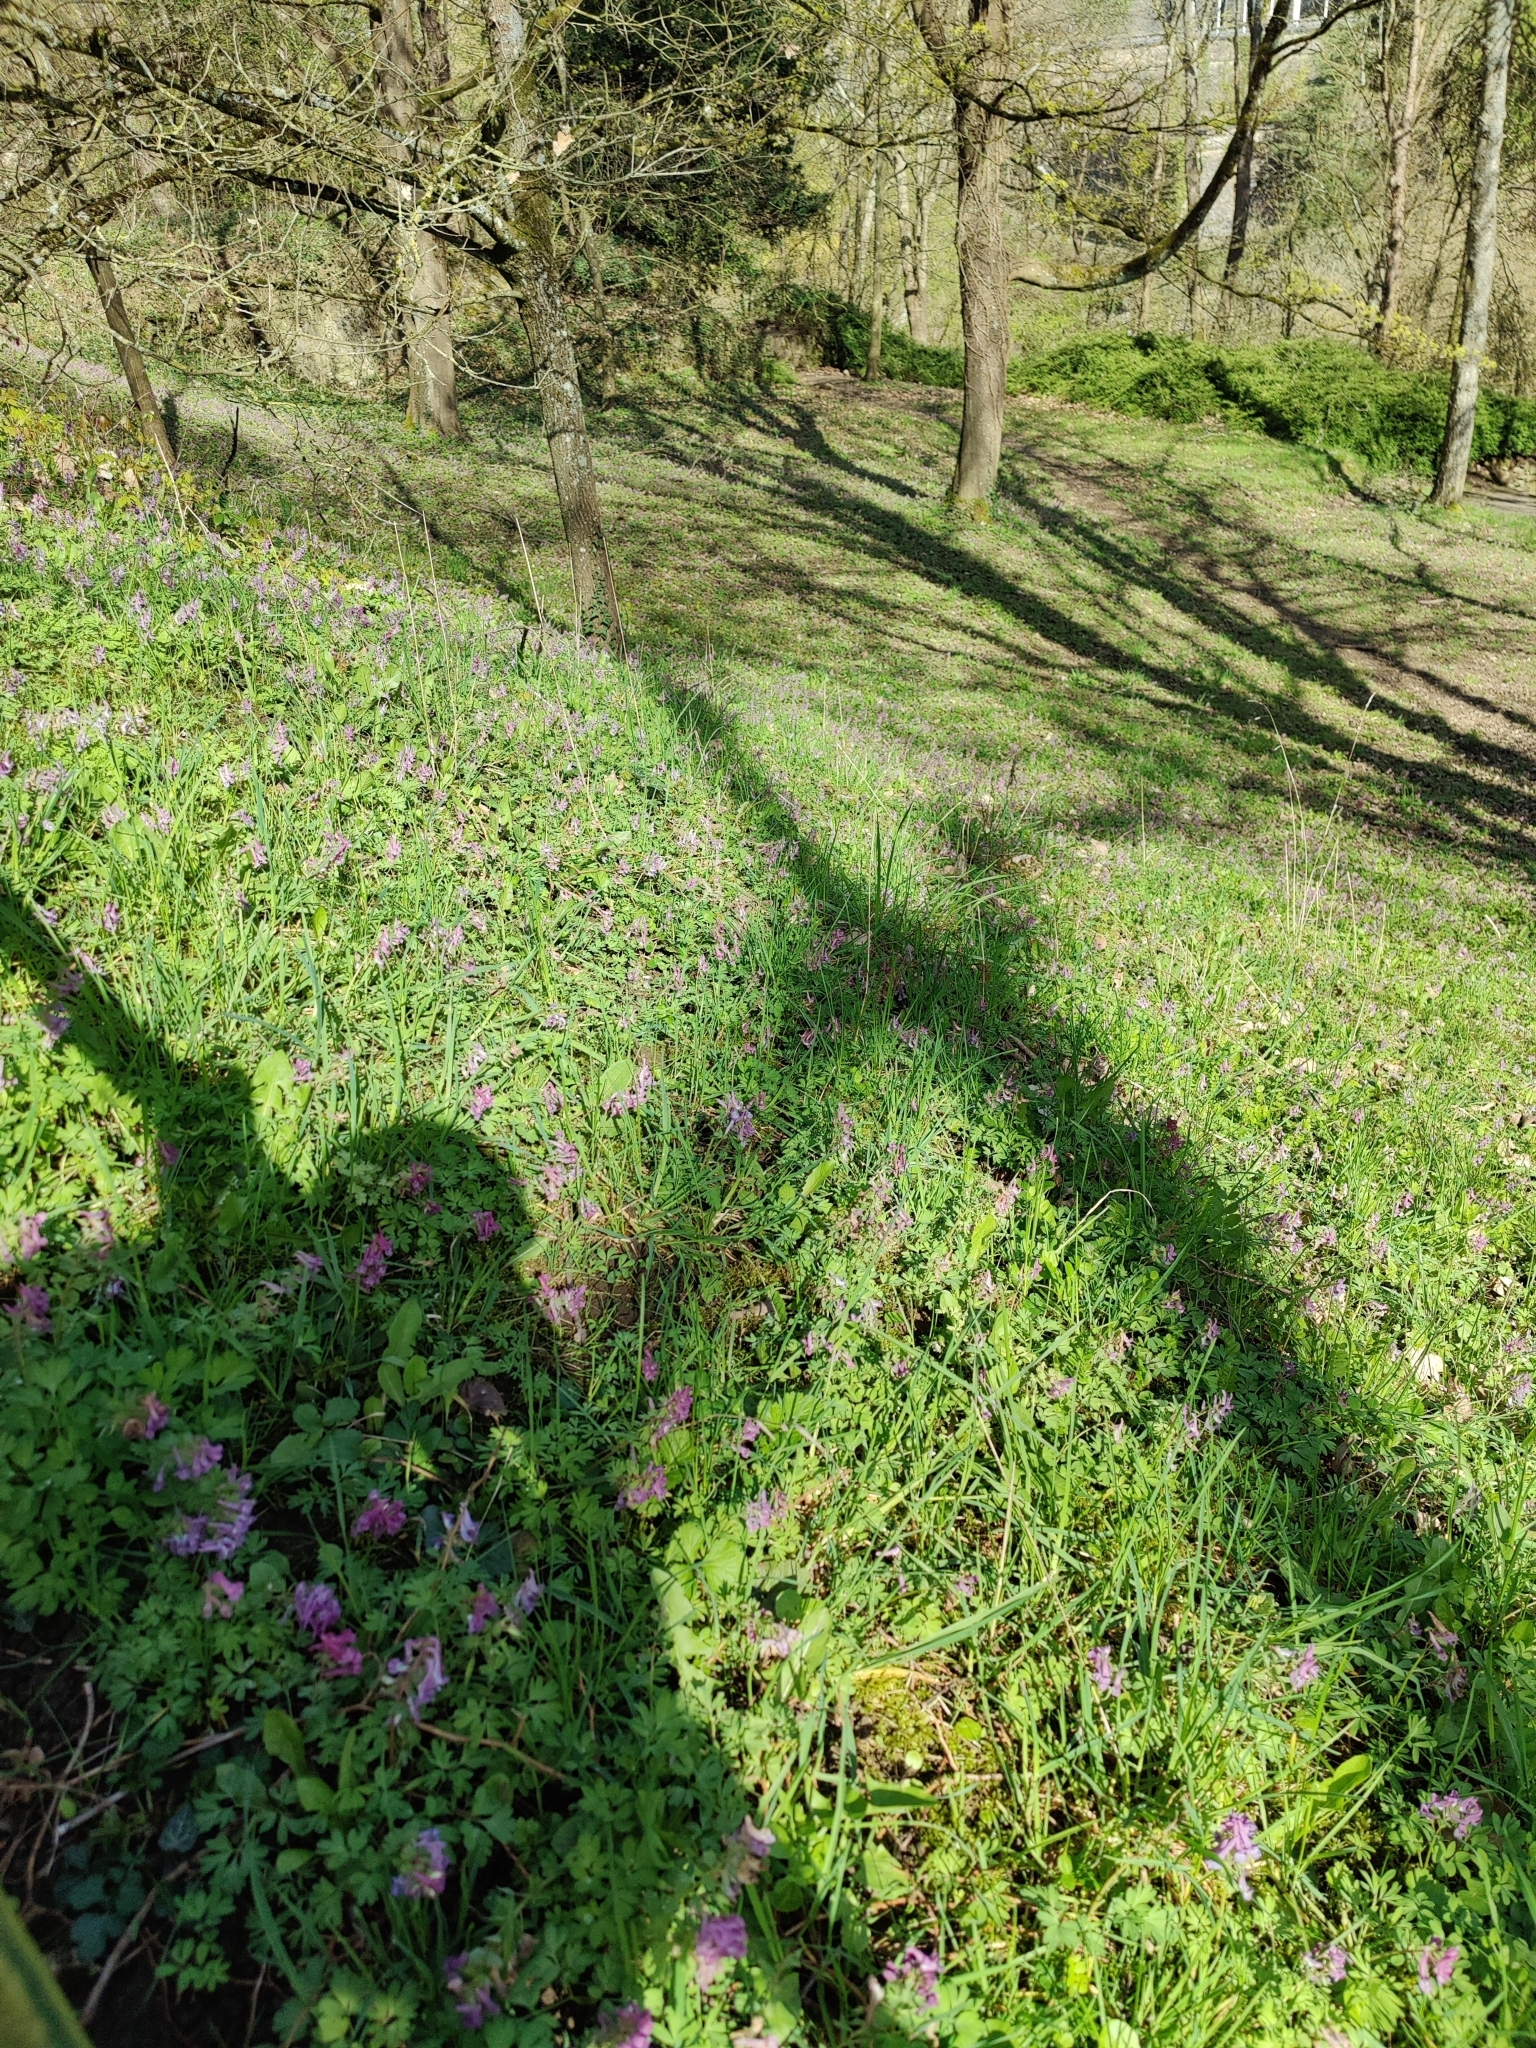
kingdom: Plantae
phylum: Tracheophyta
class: Magnoliopsida
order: Ranunculales
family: Papaveraceae
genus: Corydalis
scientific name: Corydalis solida
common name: Bird-in-a-bush
